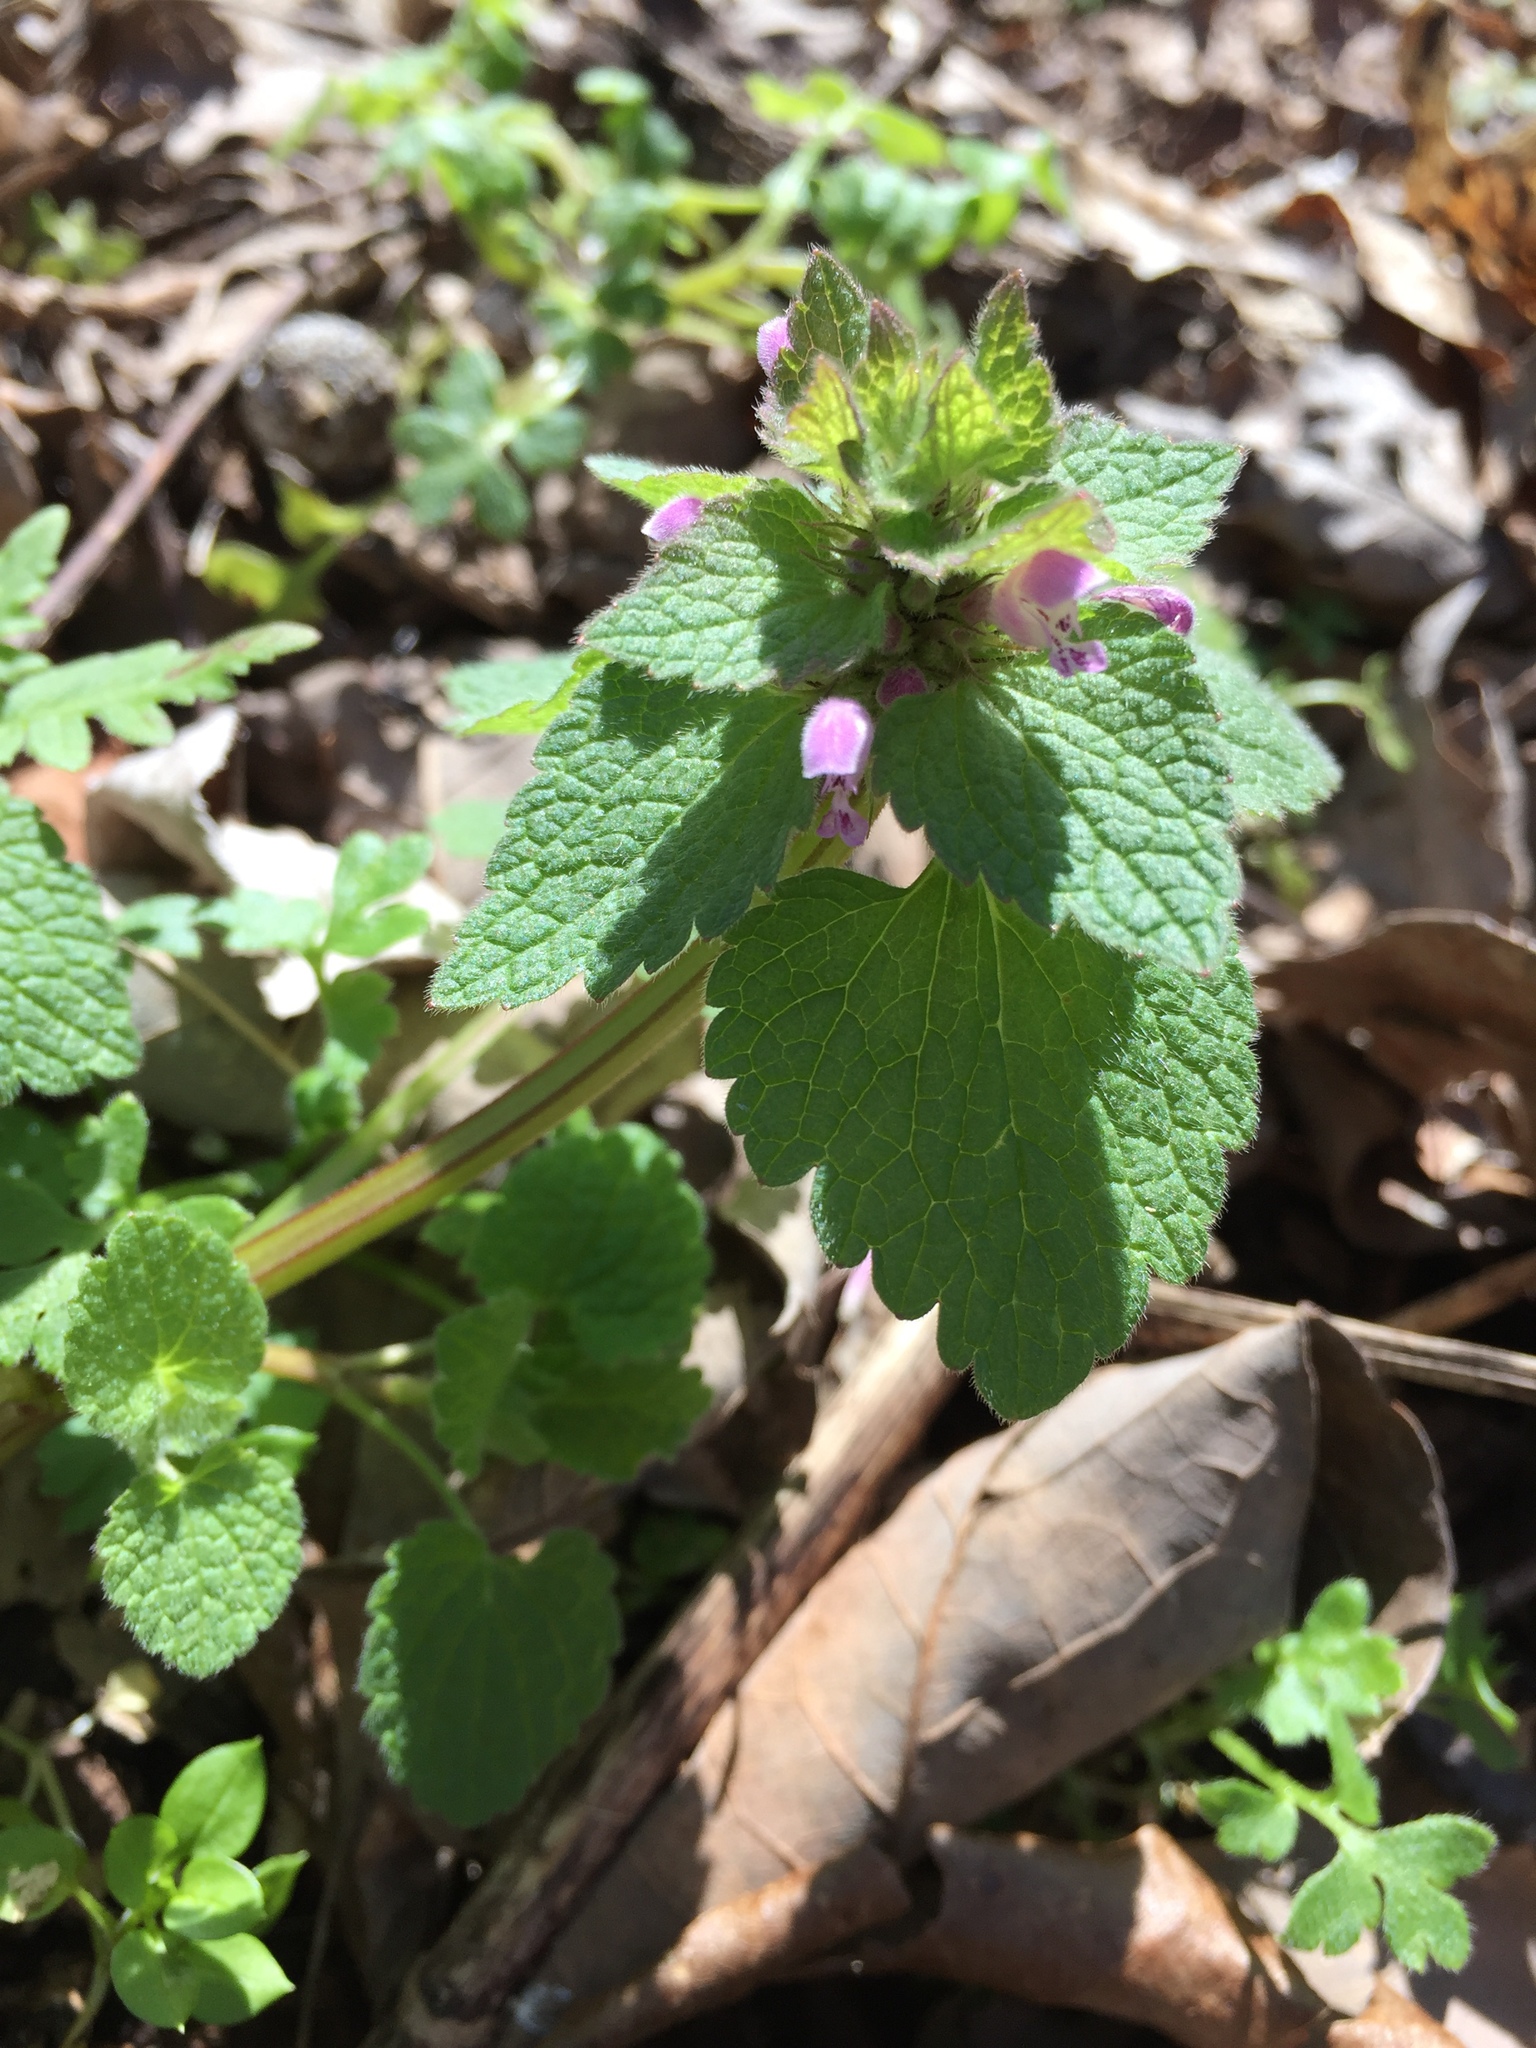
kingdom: Plantae
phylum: Tracheophyta
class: Magnoliopsida
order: Lamiales
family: Lamiaceae
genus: Lamium
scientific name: Lamium purpureum
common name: Red dead-nettle
